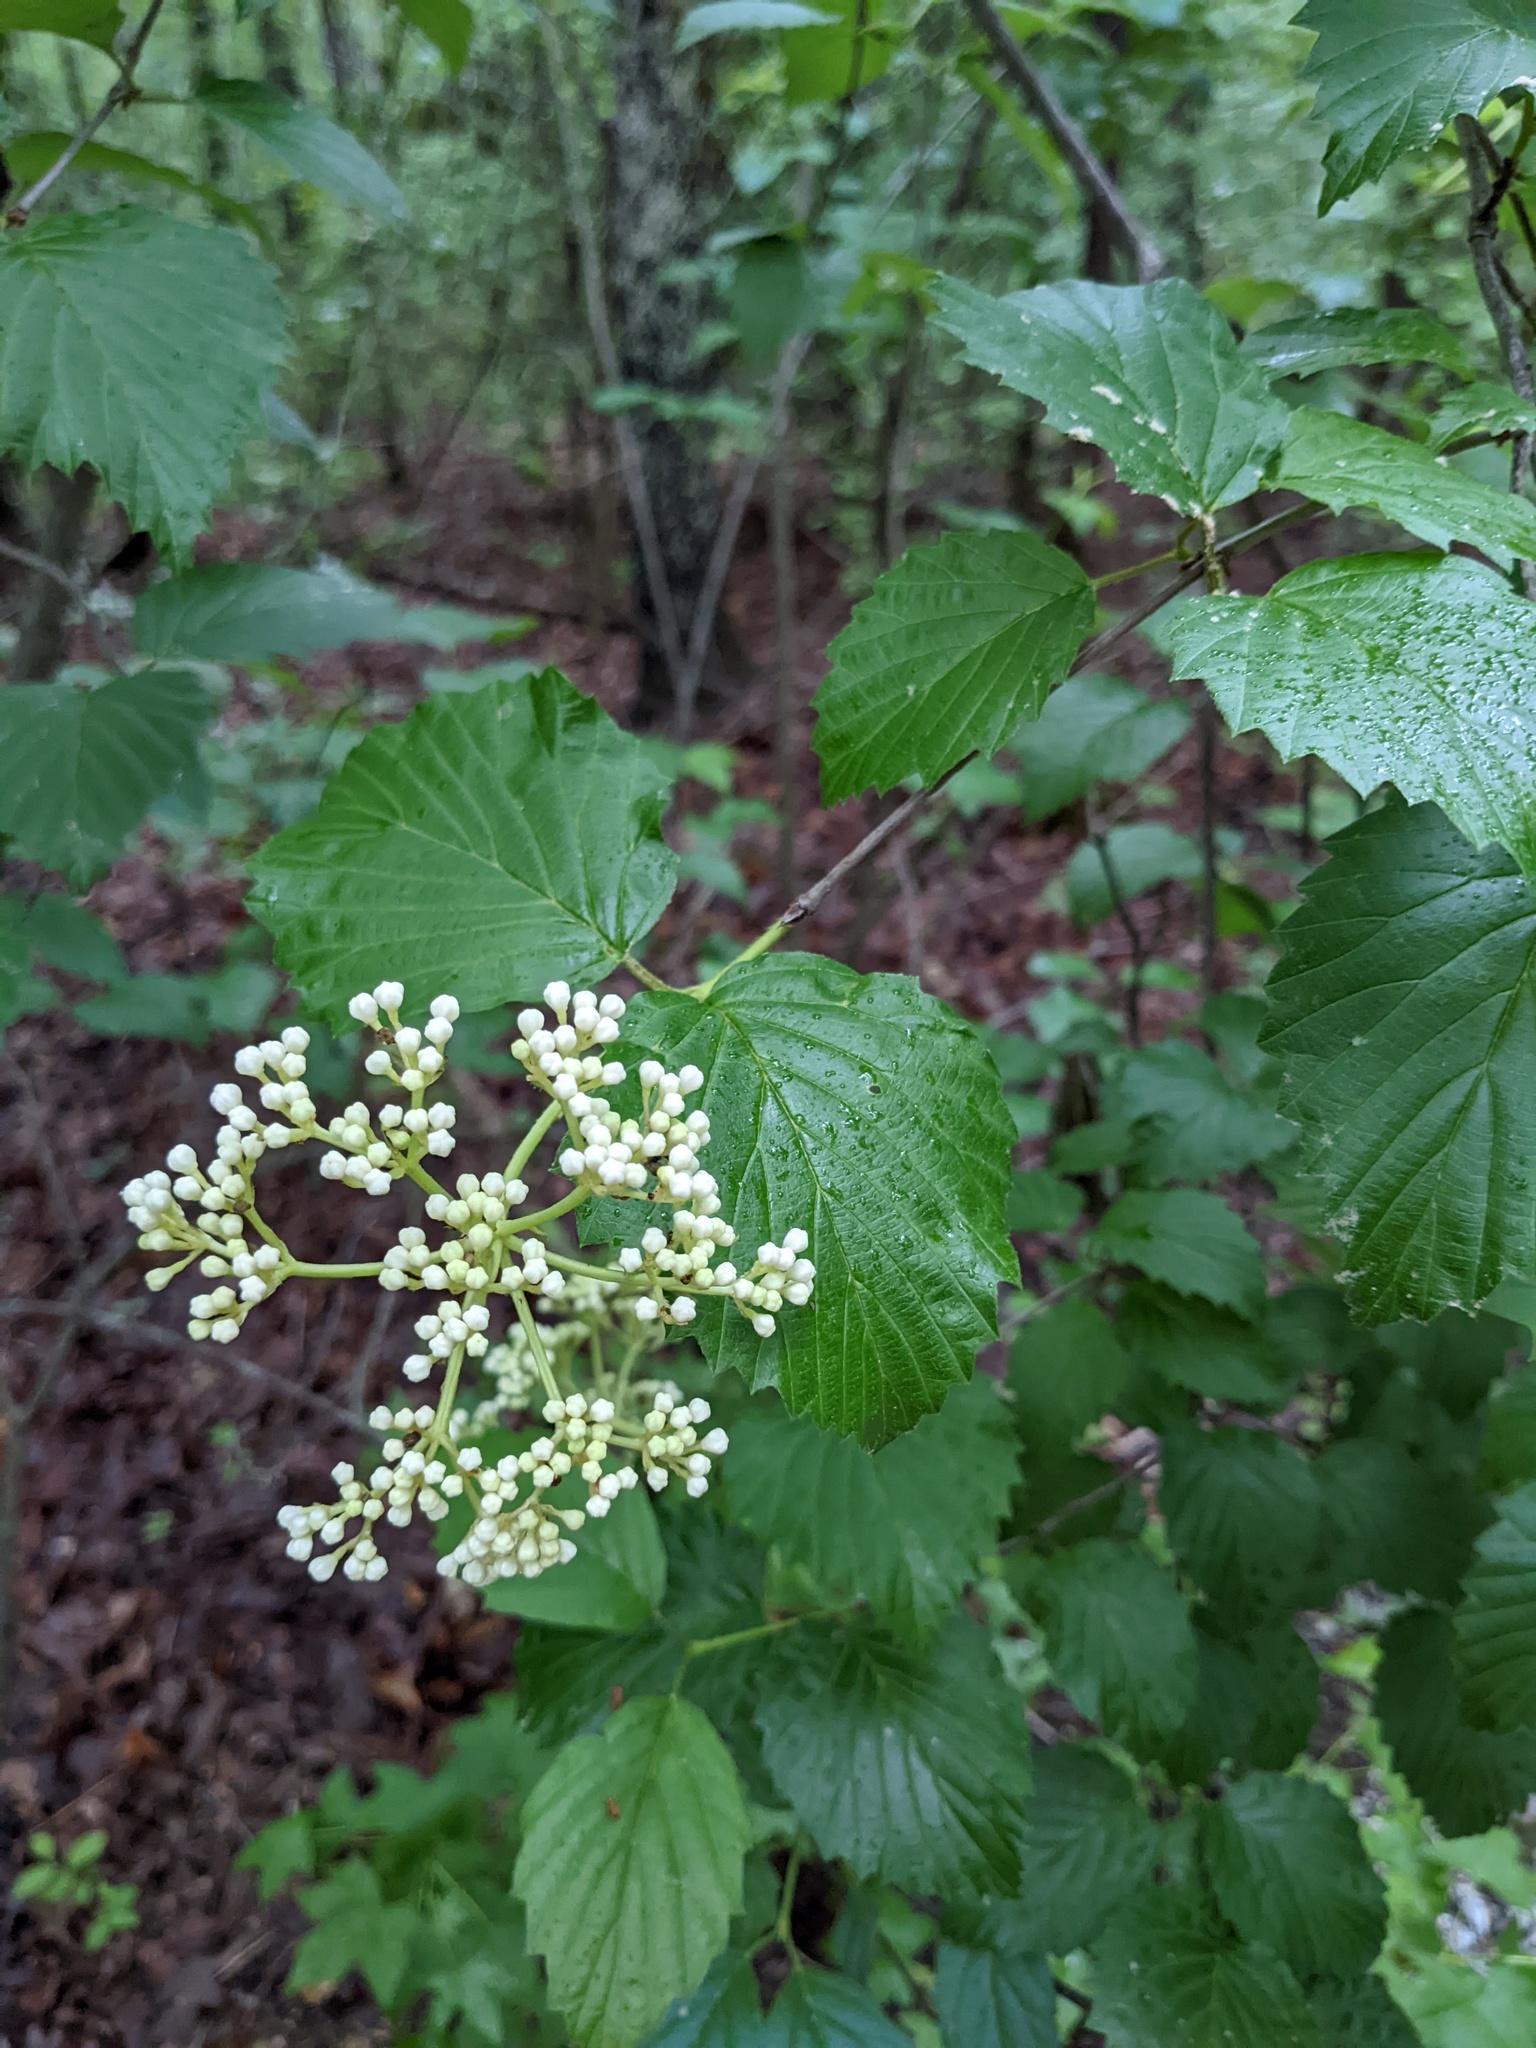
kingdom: Plantae
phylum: Tracheophyta
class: Magnoliopsida
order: Dipsacales
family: Viburnaceae
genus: Viburnum
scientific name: Viburnum dentatum
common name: Arrow-wood
